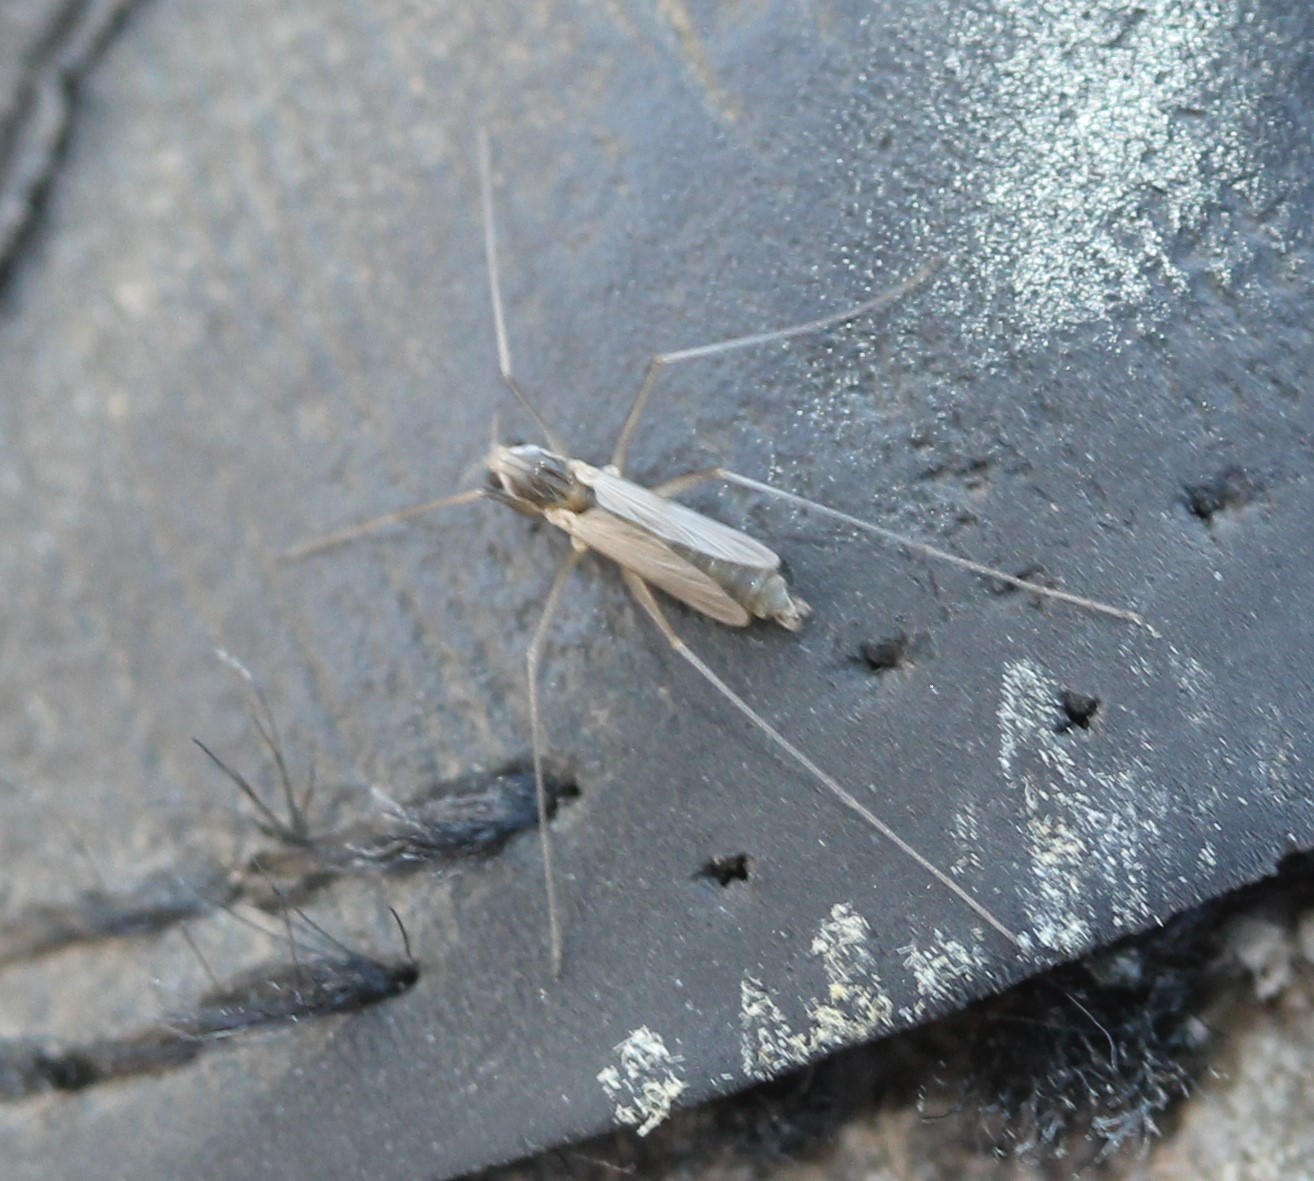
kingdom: Animalia
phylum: Arthropoda
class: Insecta
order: Diptera
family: Chironomidae
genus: Thalassomya
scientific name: Thalassomya bureni
